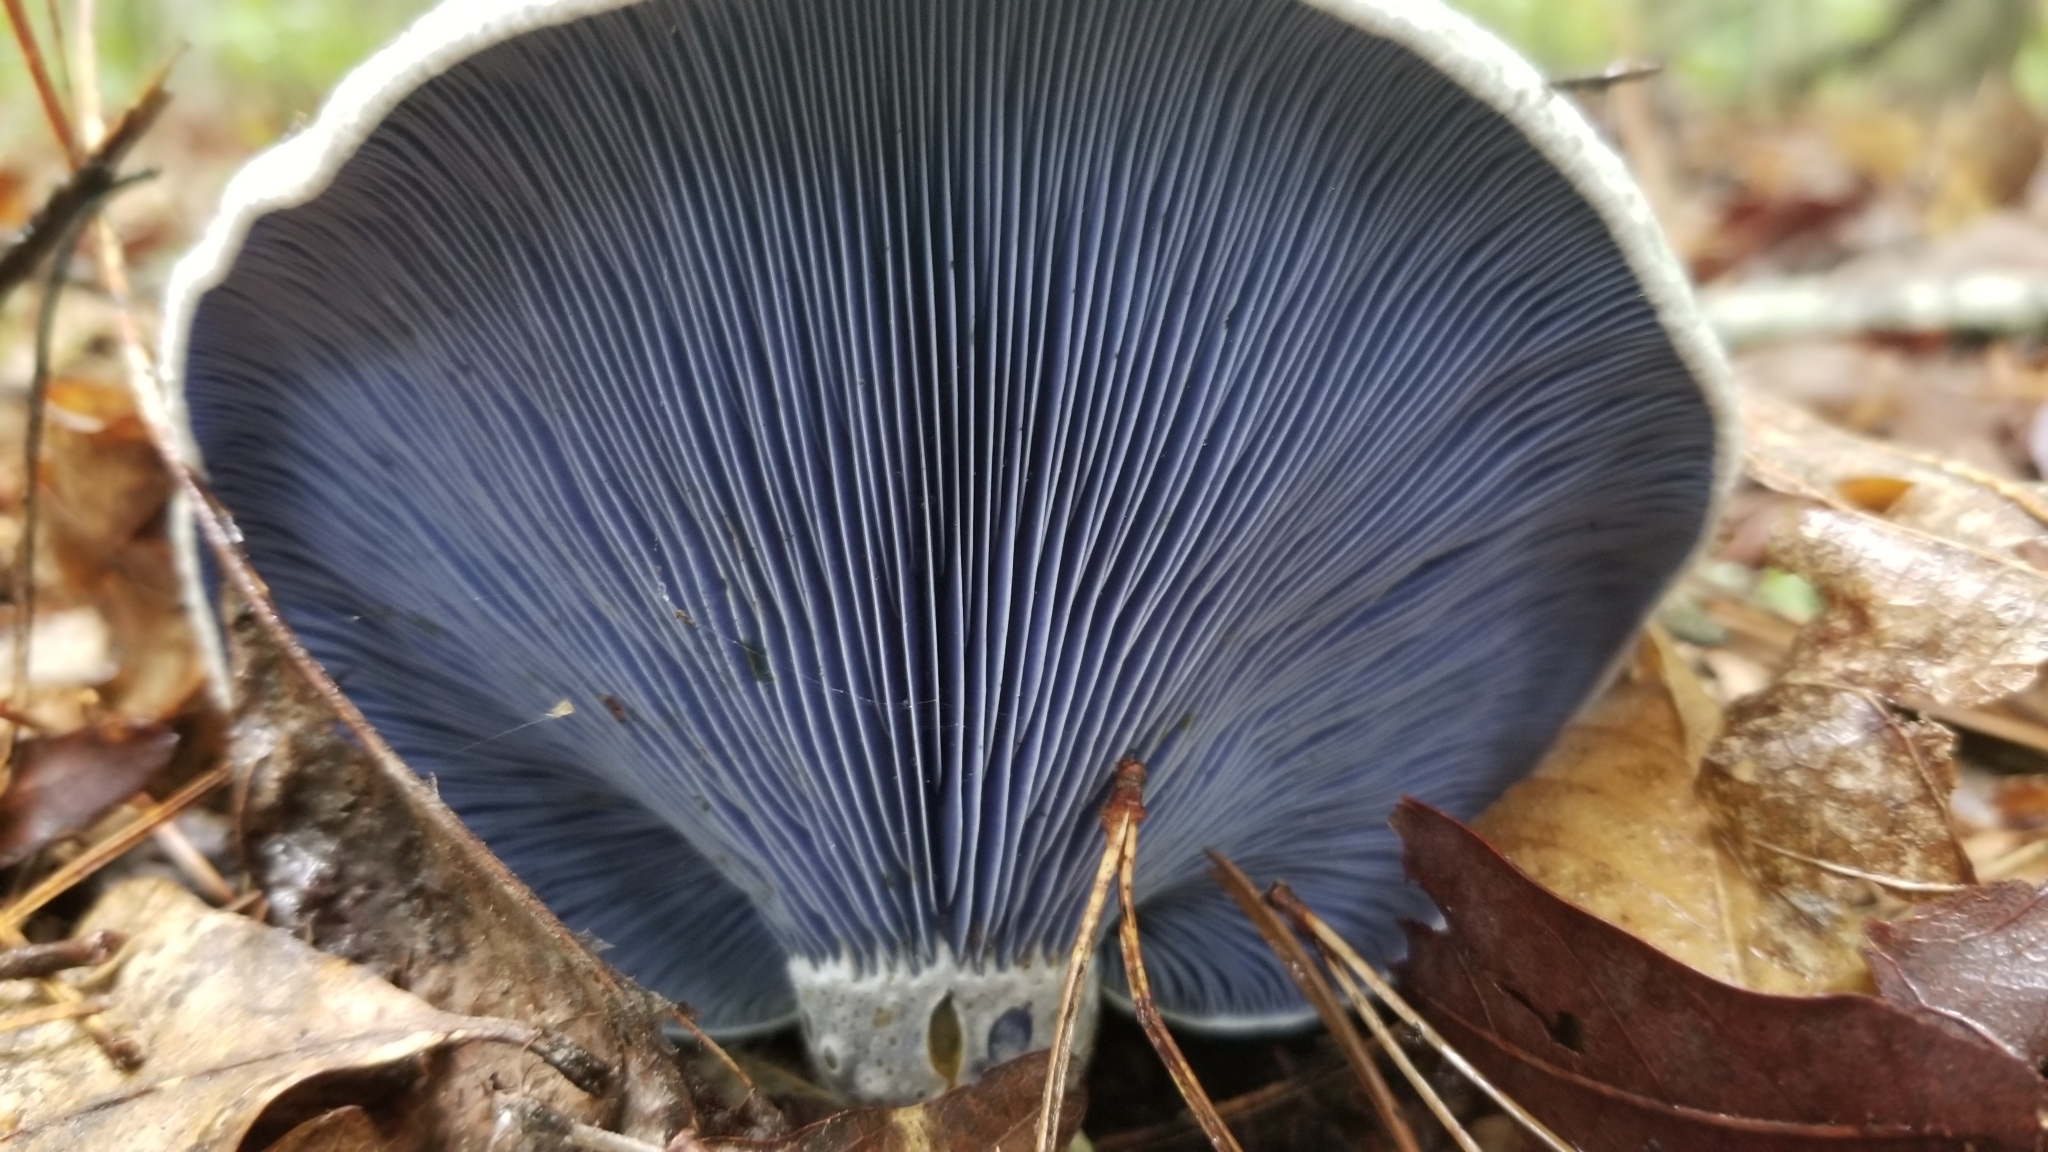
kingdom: Fungi
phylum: Basidiomycota
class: Agaricomycetes
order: Russulales
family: Russulaceae
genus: Lactarius
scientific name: Lactarius indigo
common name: Indigo milk cap
